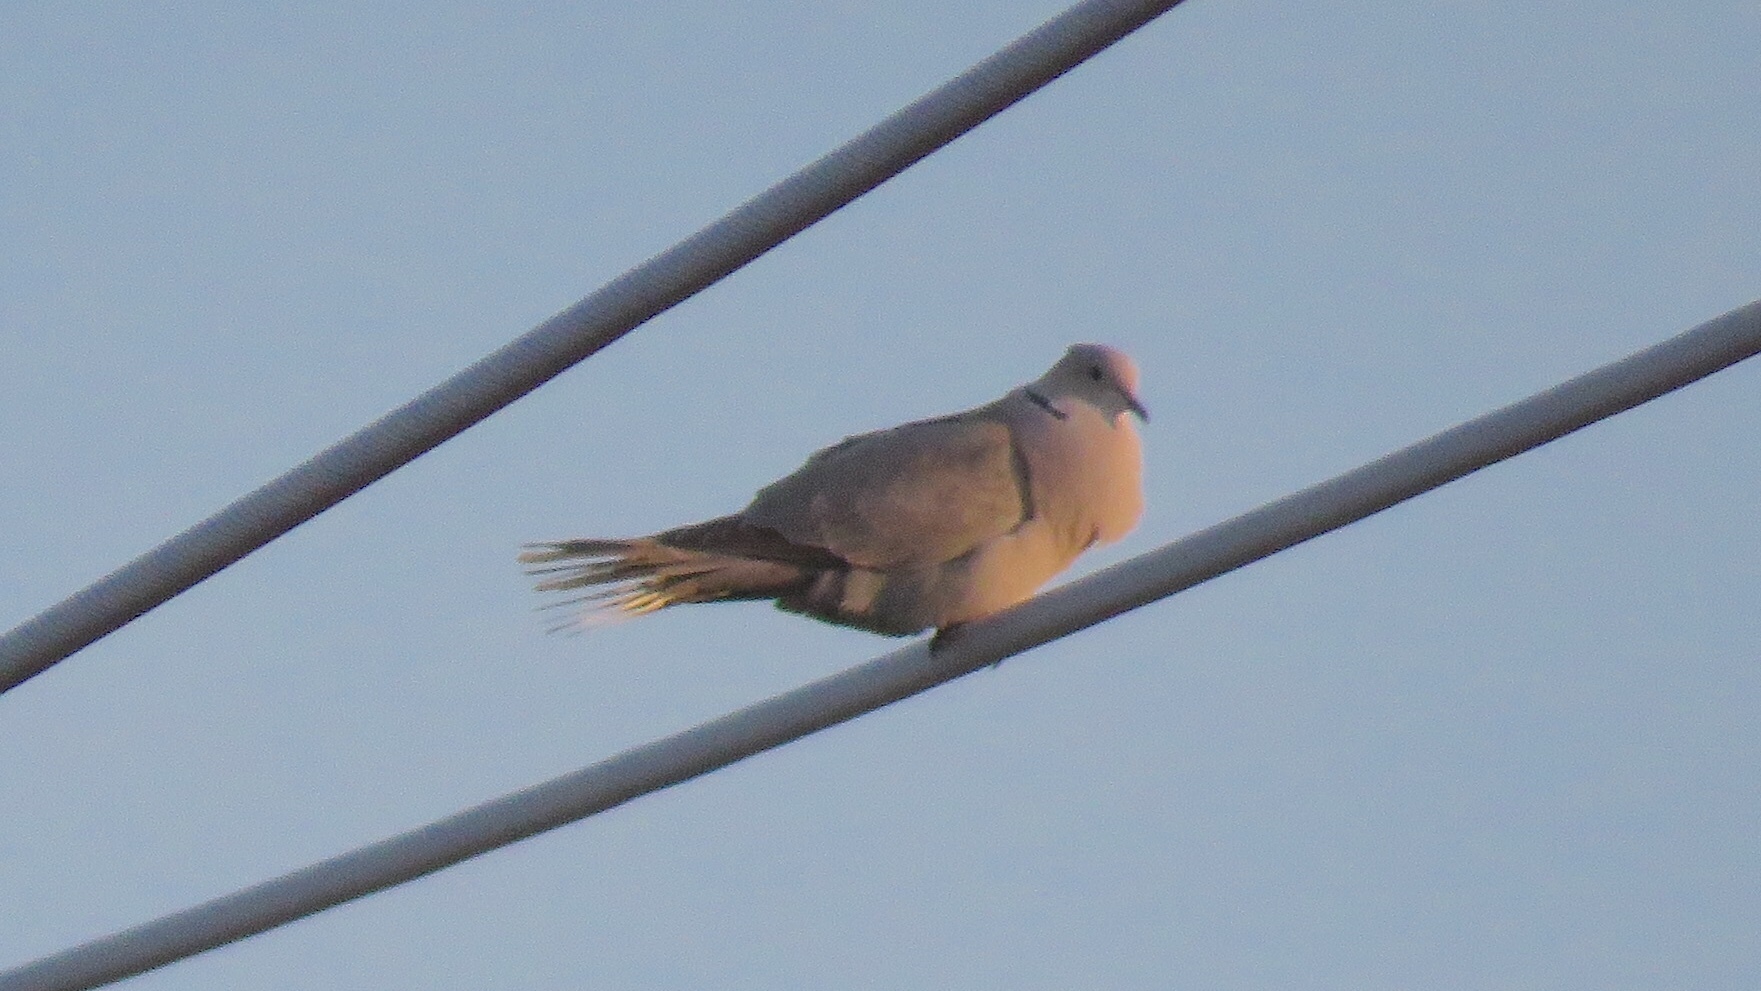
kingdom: Animalia
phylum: Chordata
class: Aves
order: Columbiformes
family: Columbidae
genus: Streptopelia
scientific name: Streptopelia decaocto
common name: Eurasian collared dove
